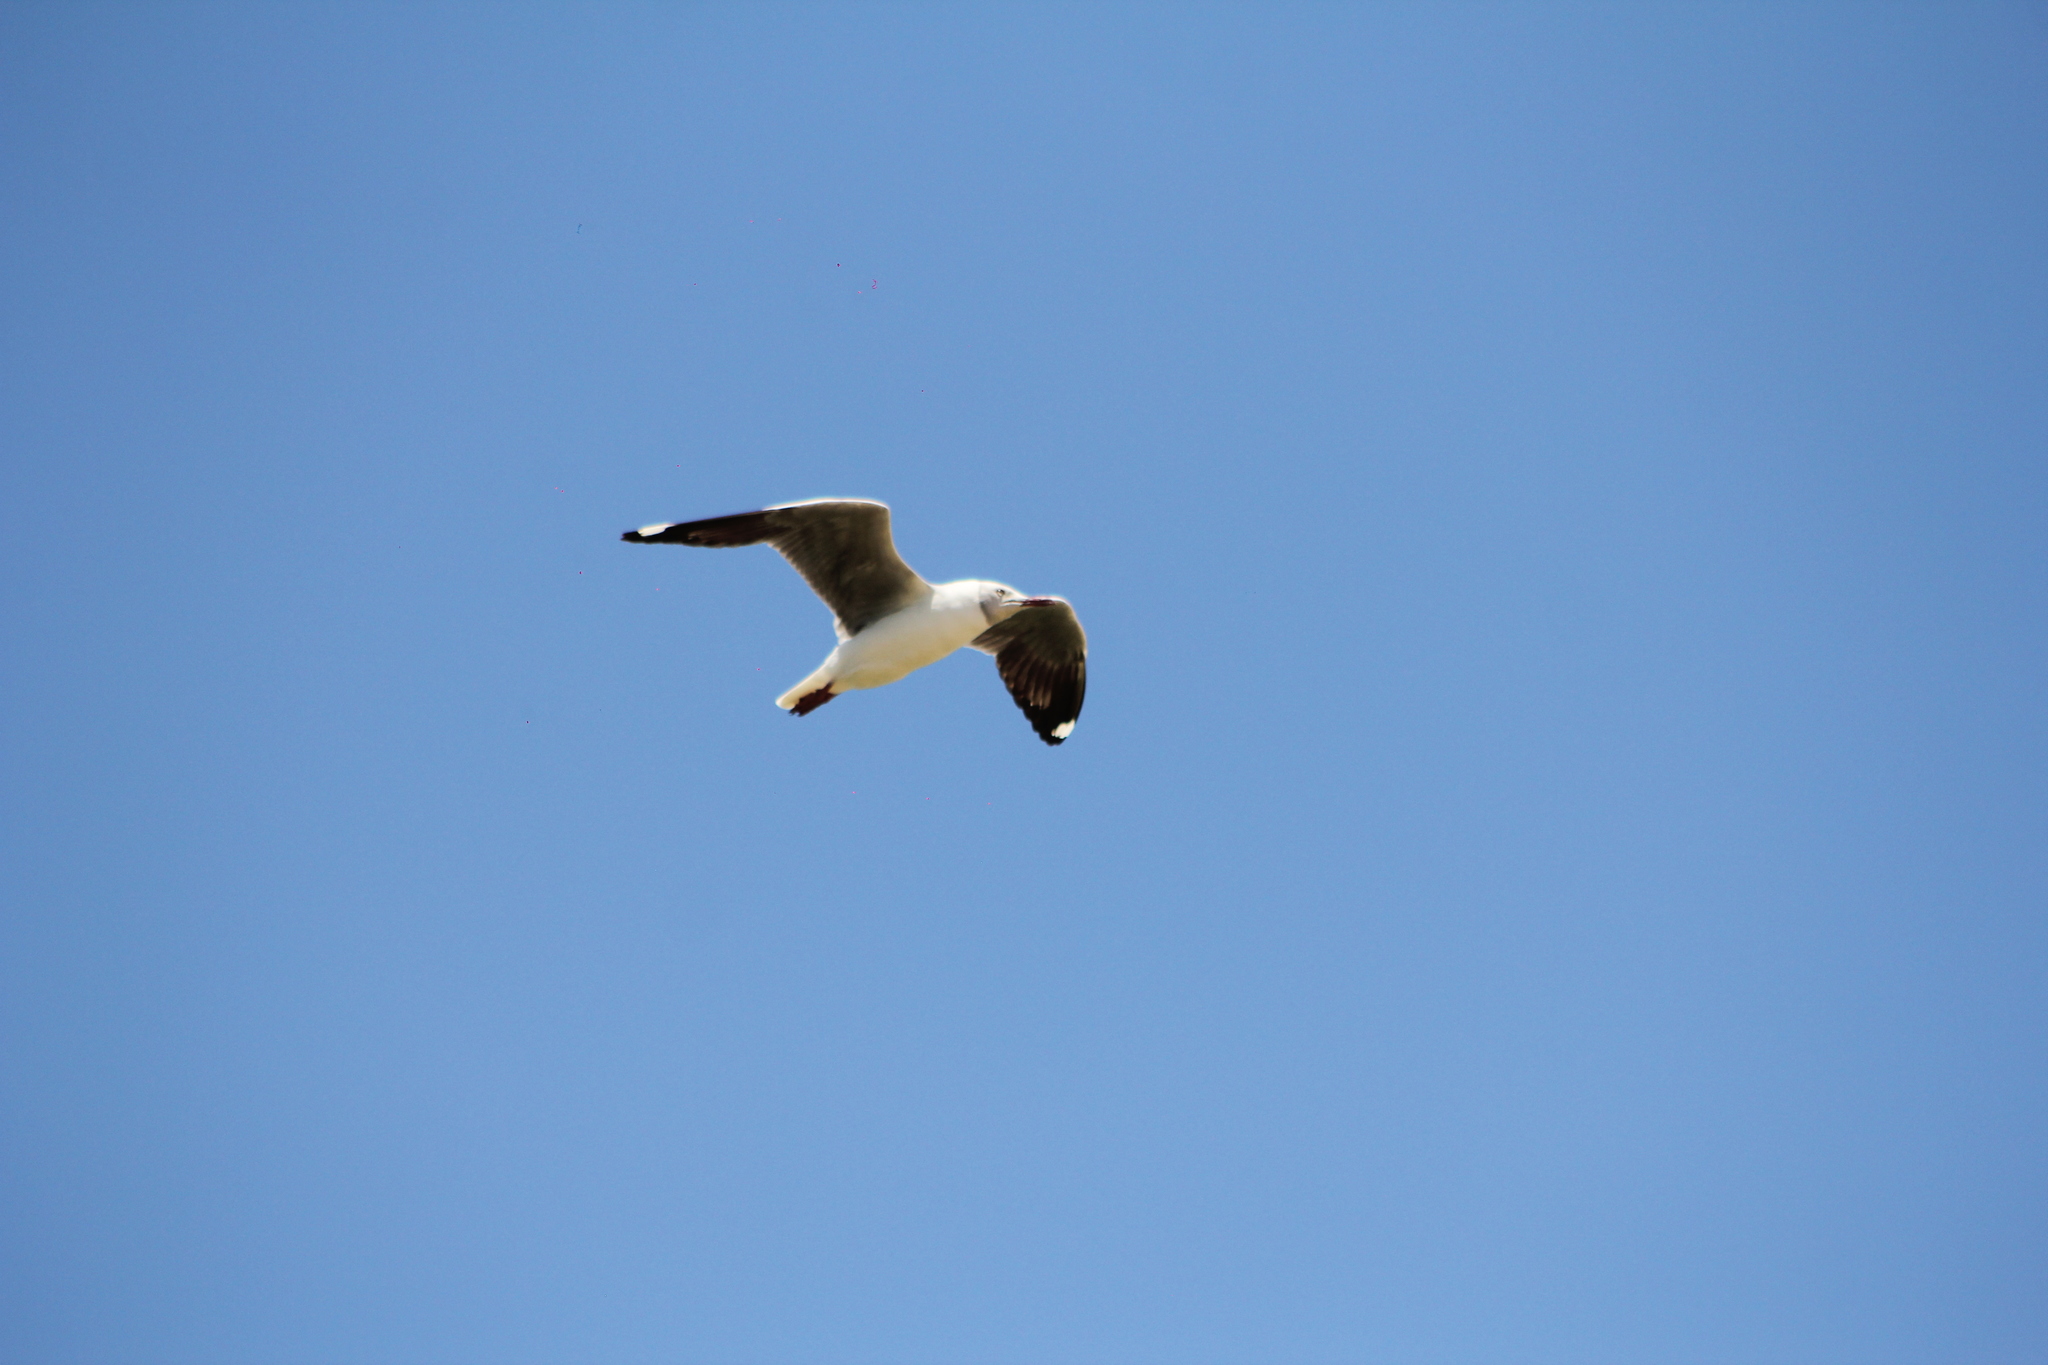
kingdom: Animalia
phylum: Chordata
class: Aves
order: Charadriiformes
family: Laridae
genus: Chroicocephalus
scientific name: Chroicocephalus cirrocephalus
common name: Grey-headed gull
